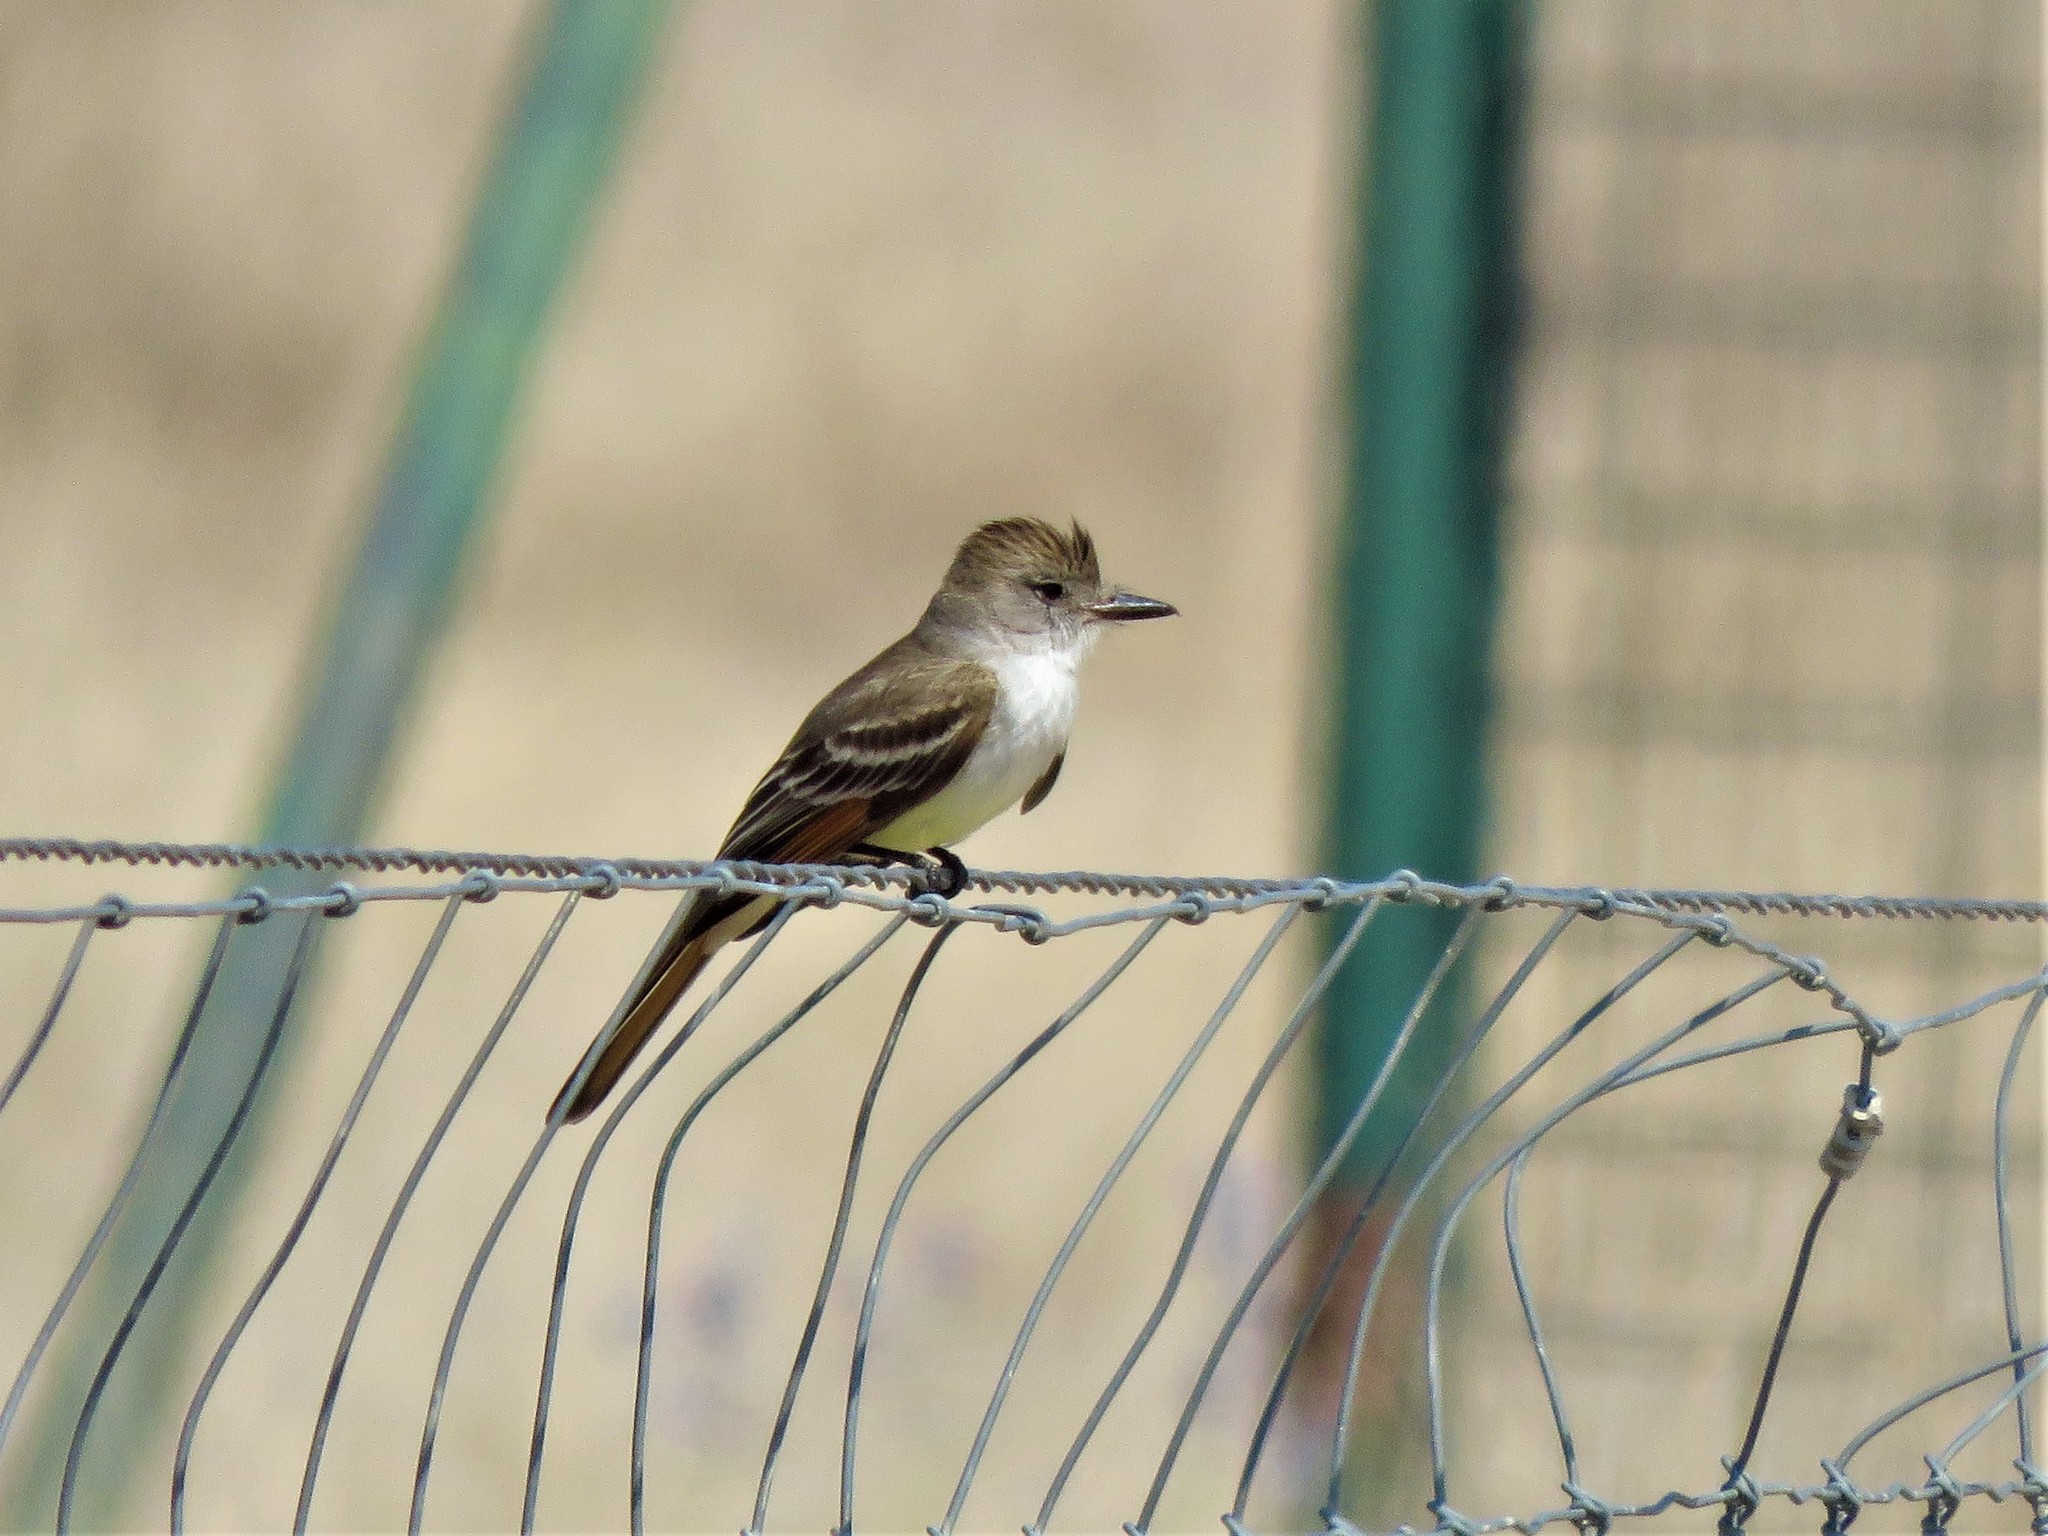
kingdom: Animalia
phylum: Chordata
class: Aves
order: Passeriformes
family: Tyrannidae
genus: Myiarchus
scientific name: Myiarchus cinerascens
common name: Ash-throated flycatcher
